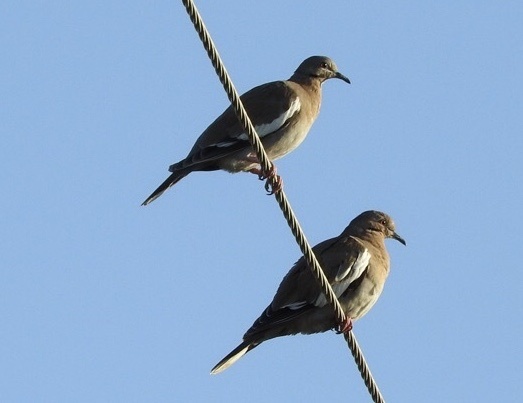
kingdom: Animalia
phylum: Chordata
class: Aves
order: Columbiformes
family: Columbidae
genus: Zenaida
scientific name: Zenaida asiatica
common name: White-winged dove
